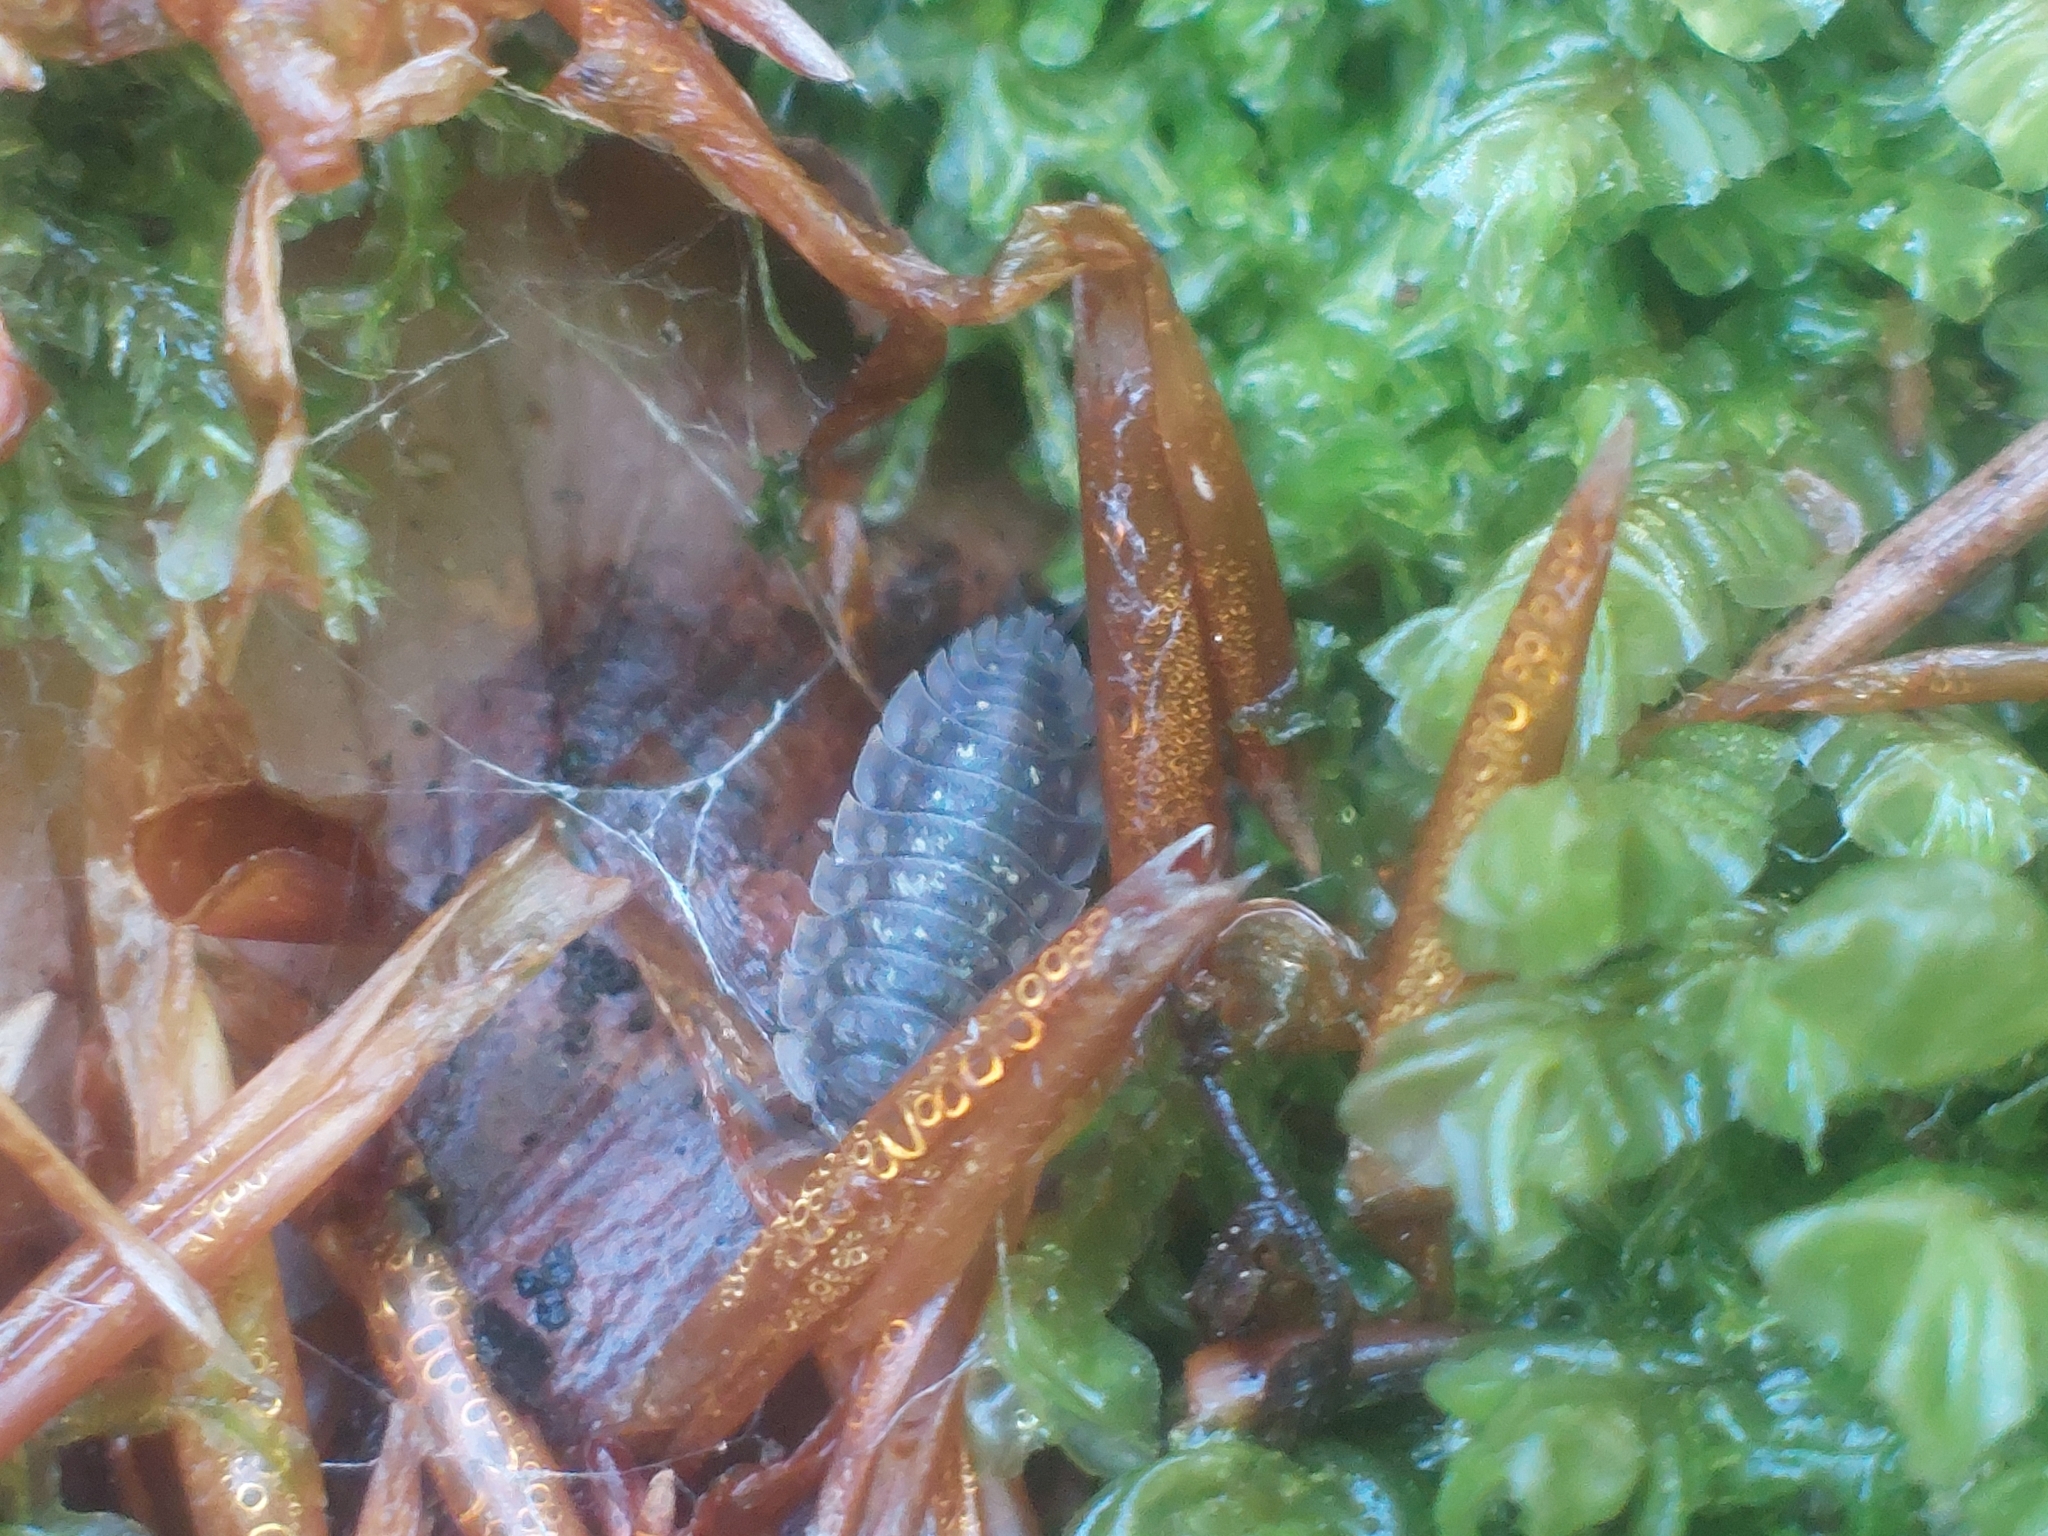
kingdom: Animalia
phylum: Arthropoda
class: Malacostraca
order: Isopoda
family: Oniscidae
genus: Oniscus
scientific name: Oniscus asellus
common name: Common shiny woodlouse
